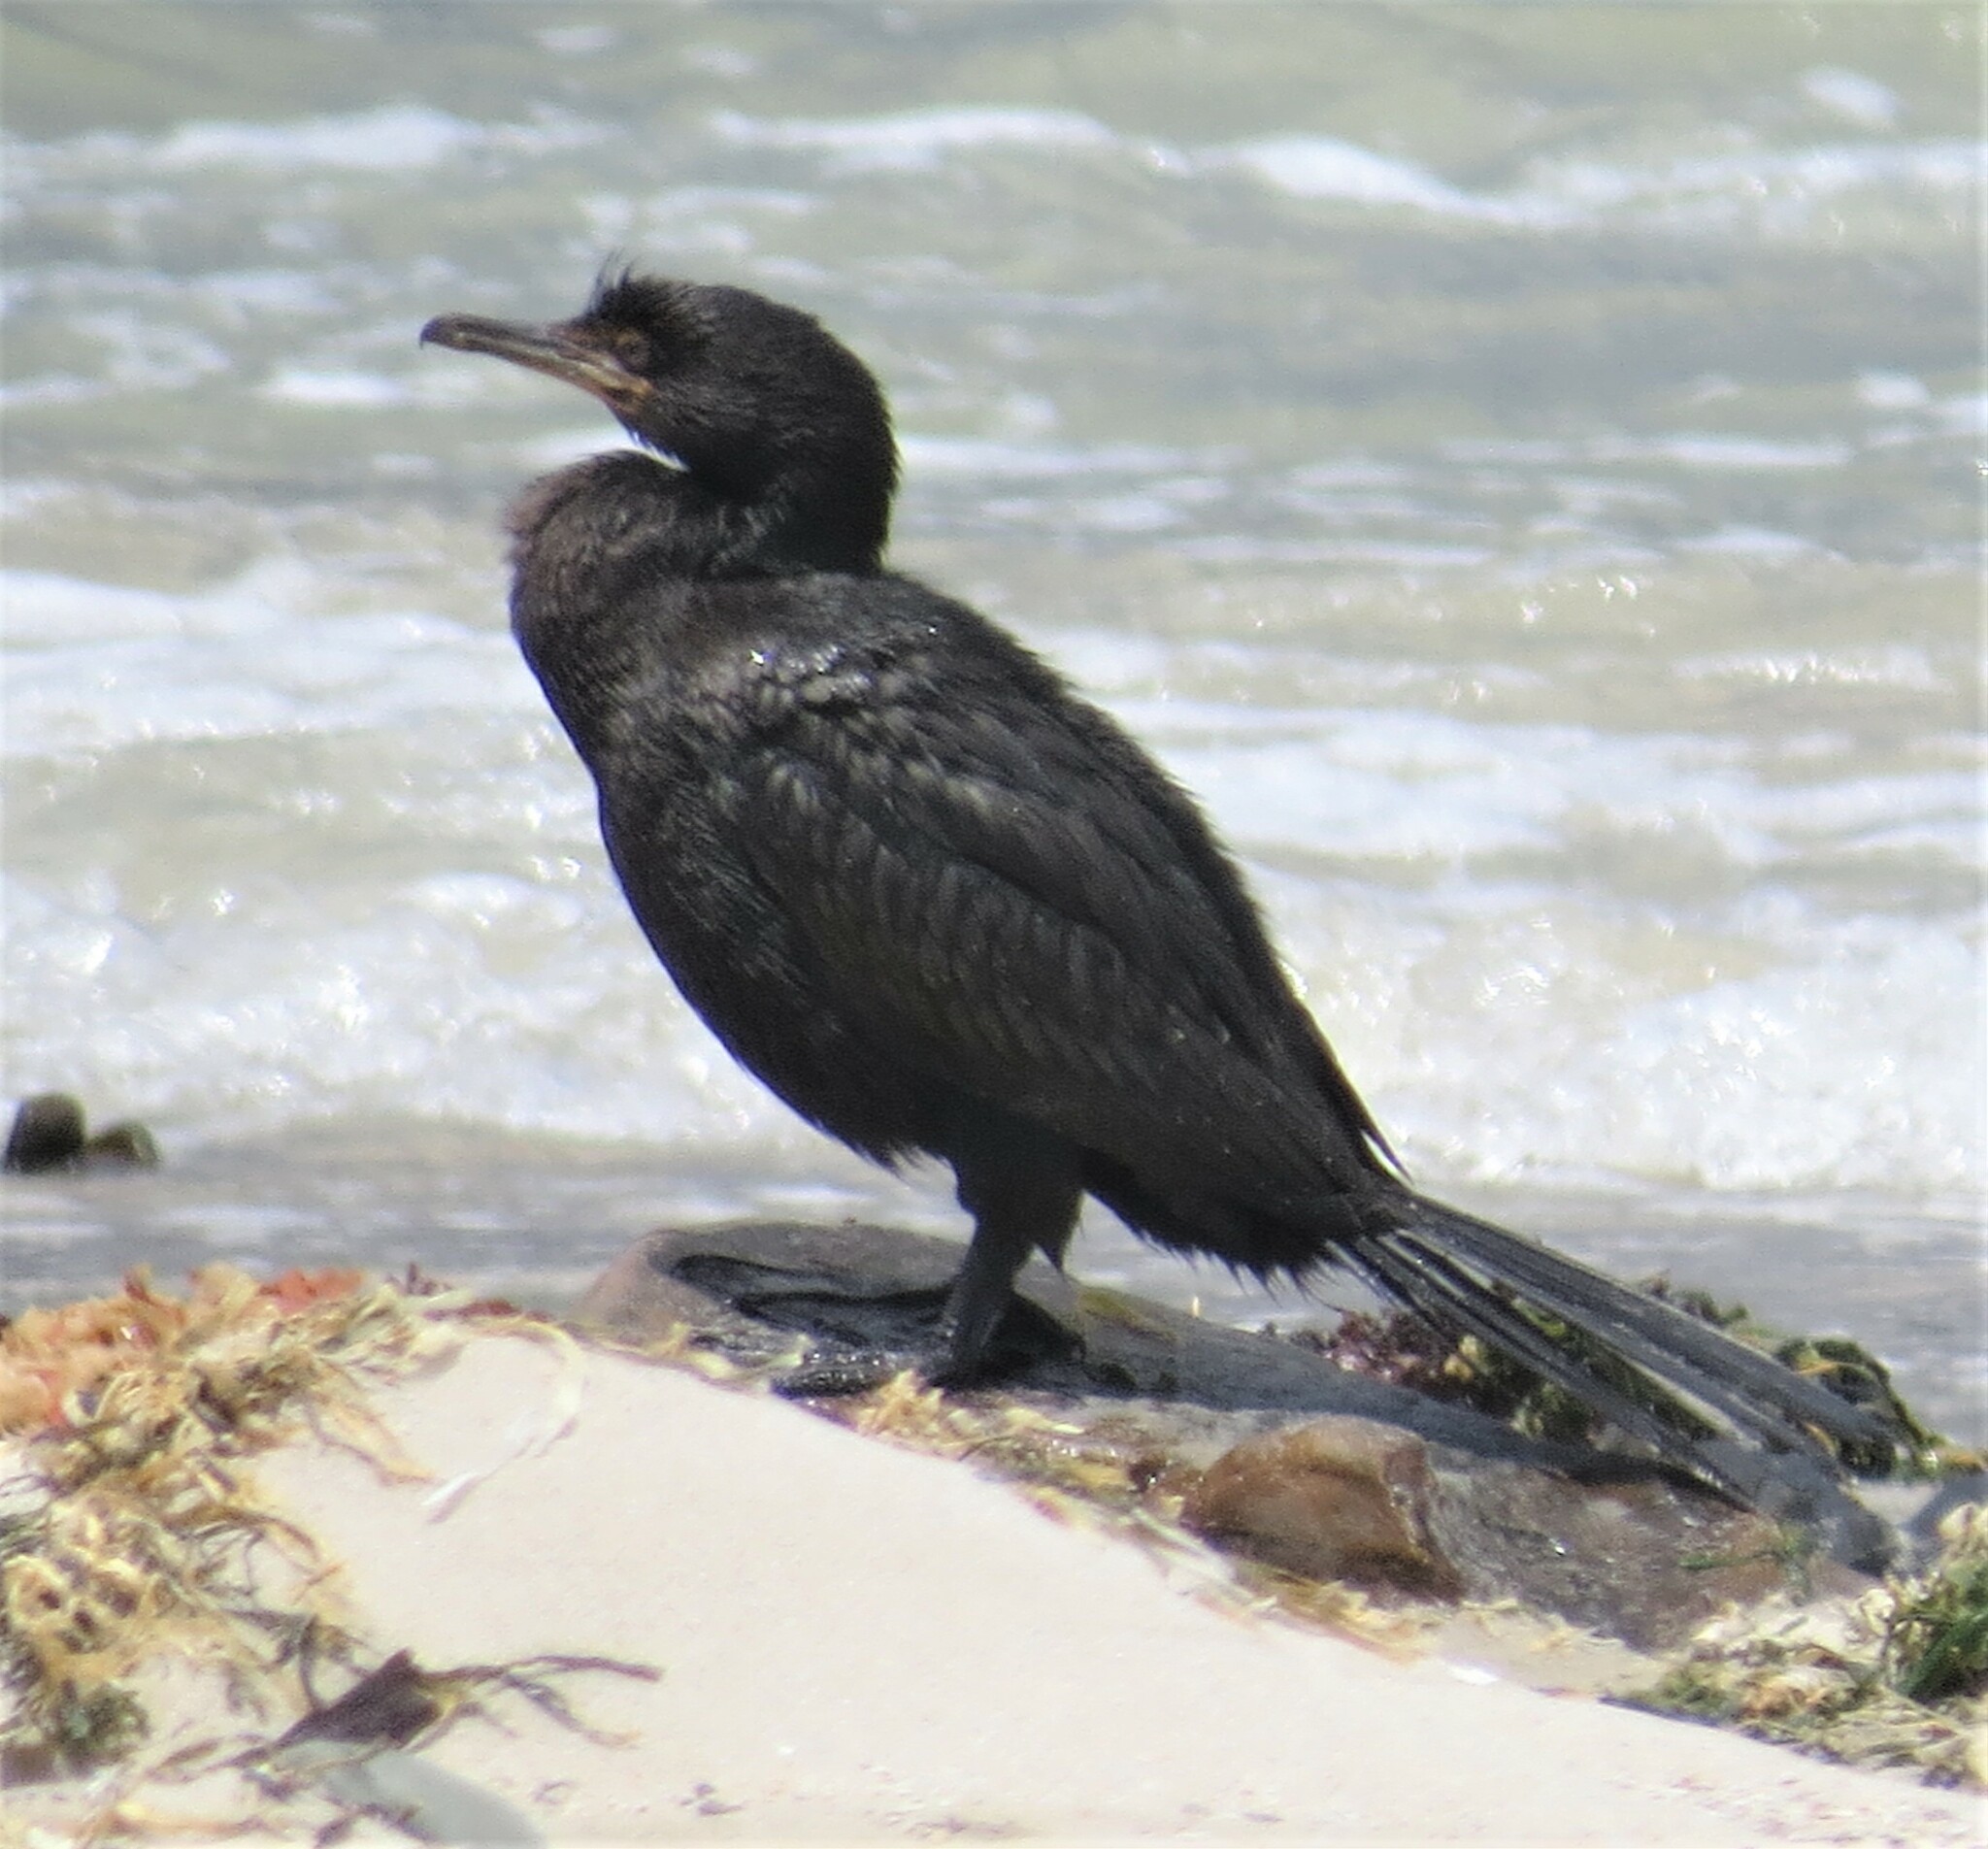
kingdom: Animalia
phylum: Chordata
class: Aves
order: Suliformes
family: Phalacrocoracidae
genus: Phalacrocorax
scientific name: Phalacrocorax neglectus
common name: Bank cormorant
